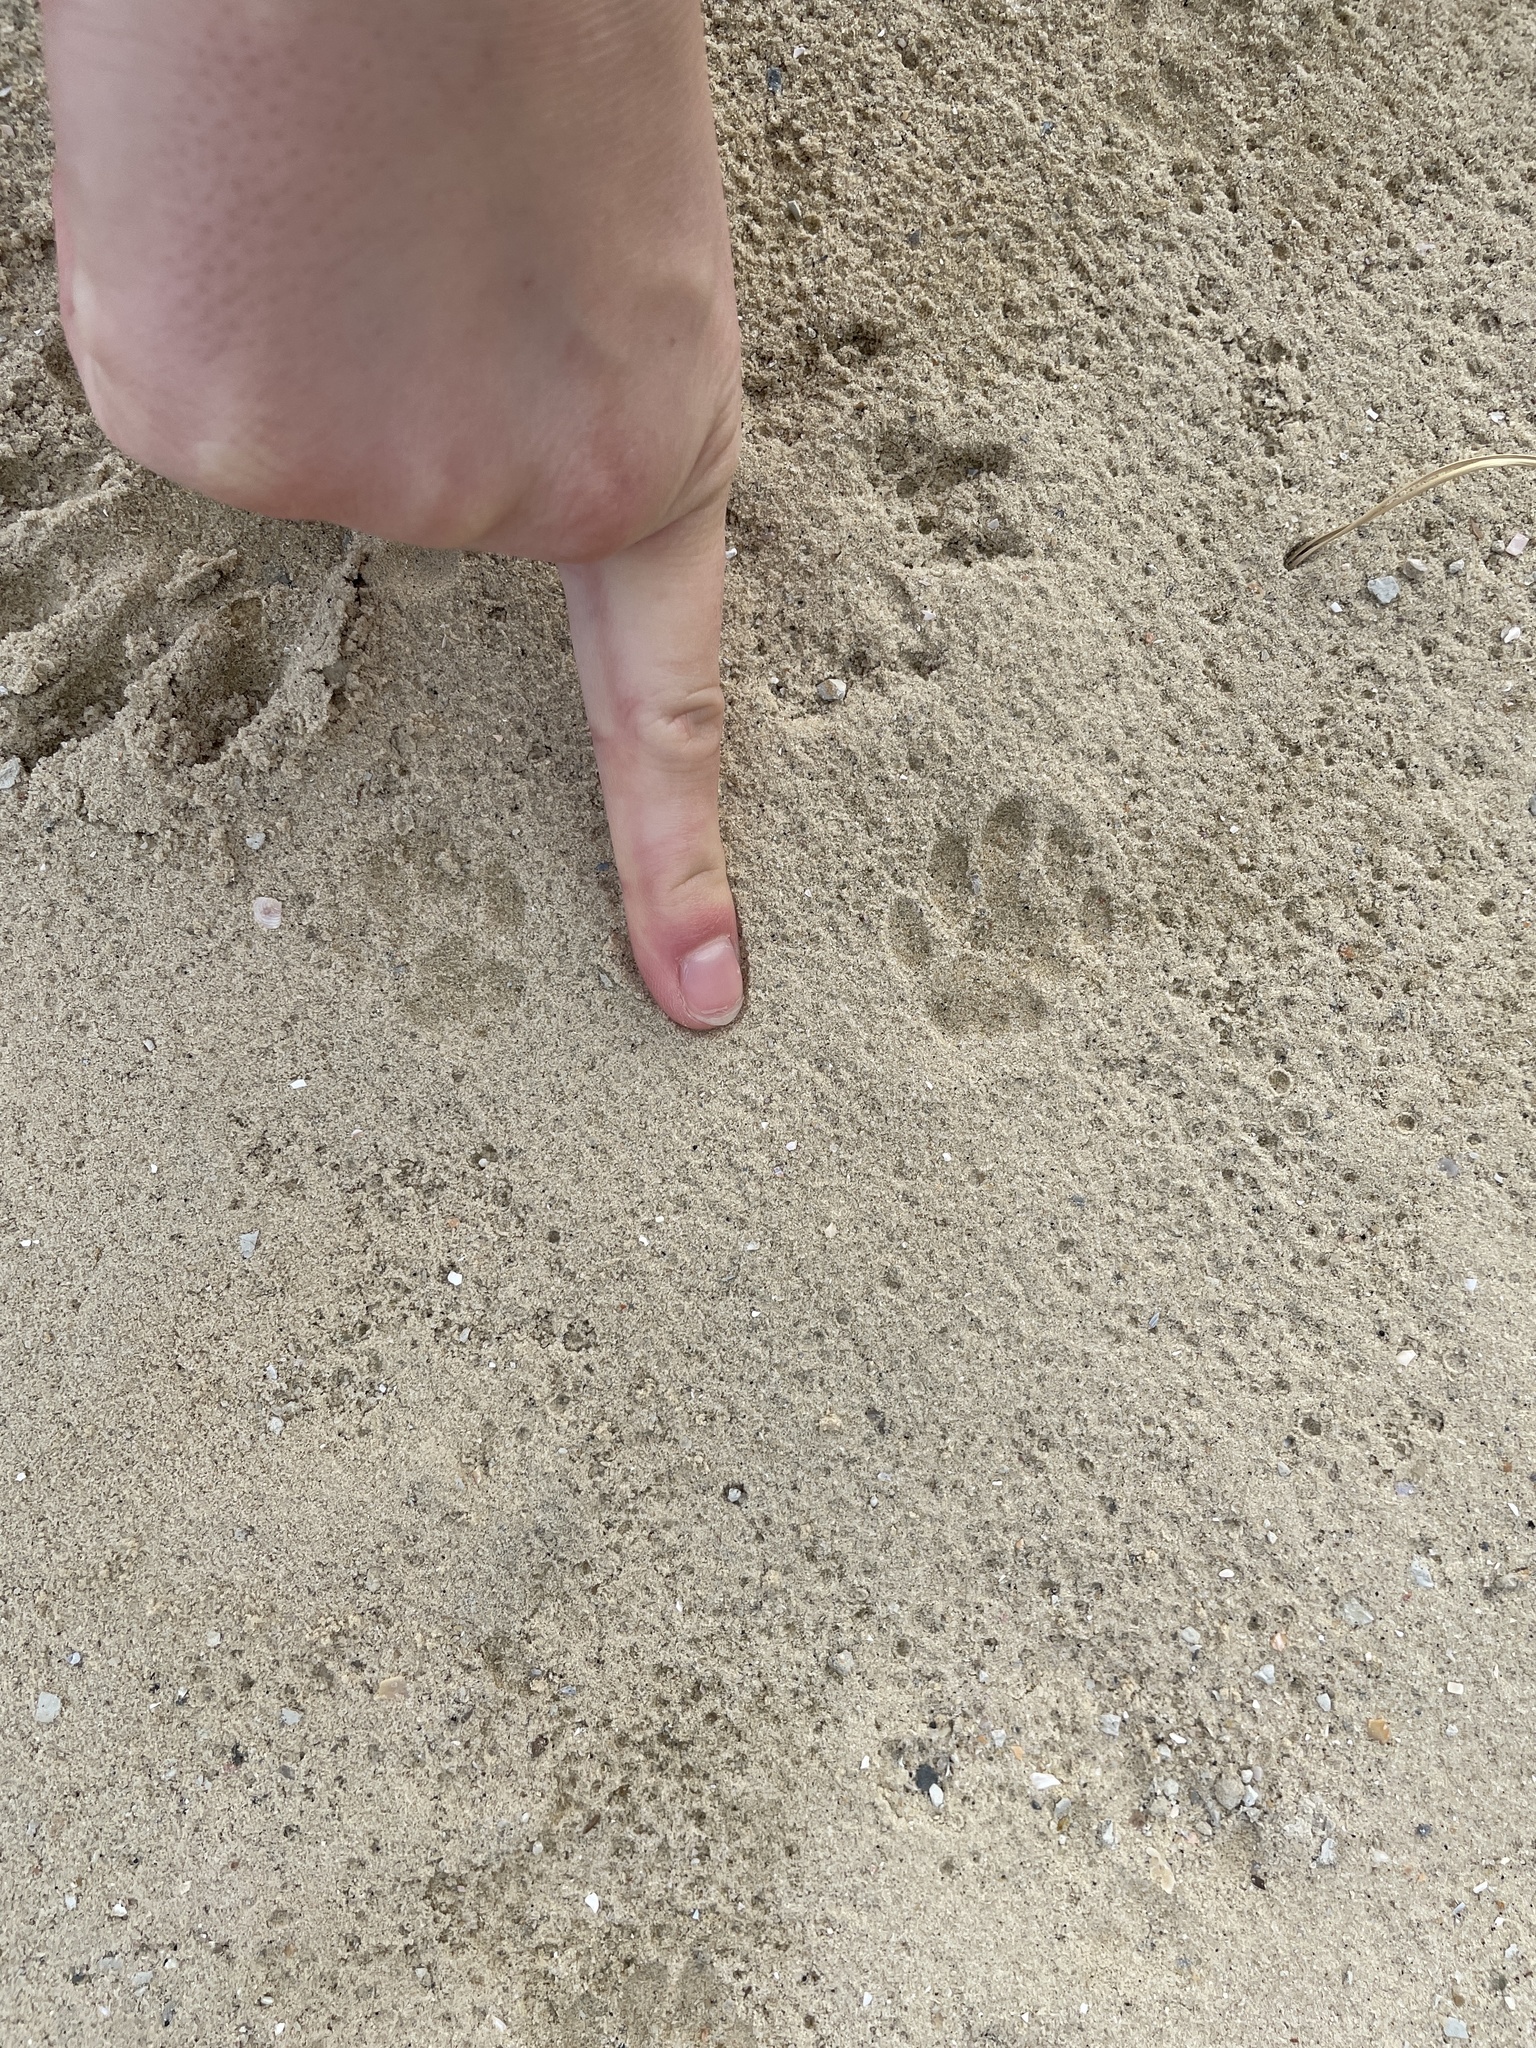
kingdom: Animalia
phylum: Chordata
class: Mammalia
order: Carnivora
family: Felidae
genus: Felis
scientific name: Felis catus
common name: Domestic cat
